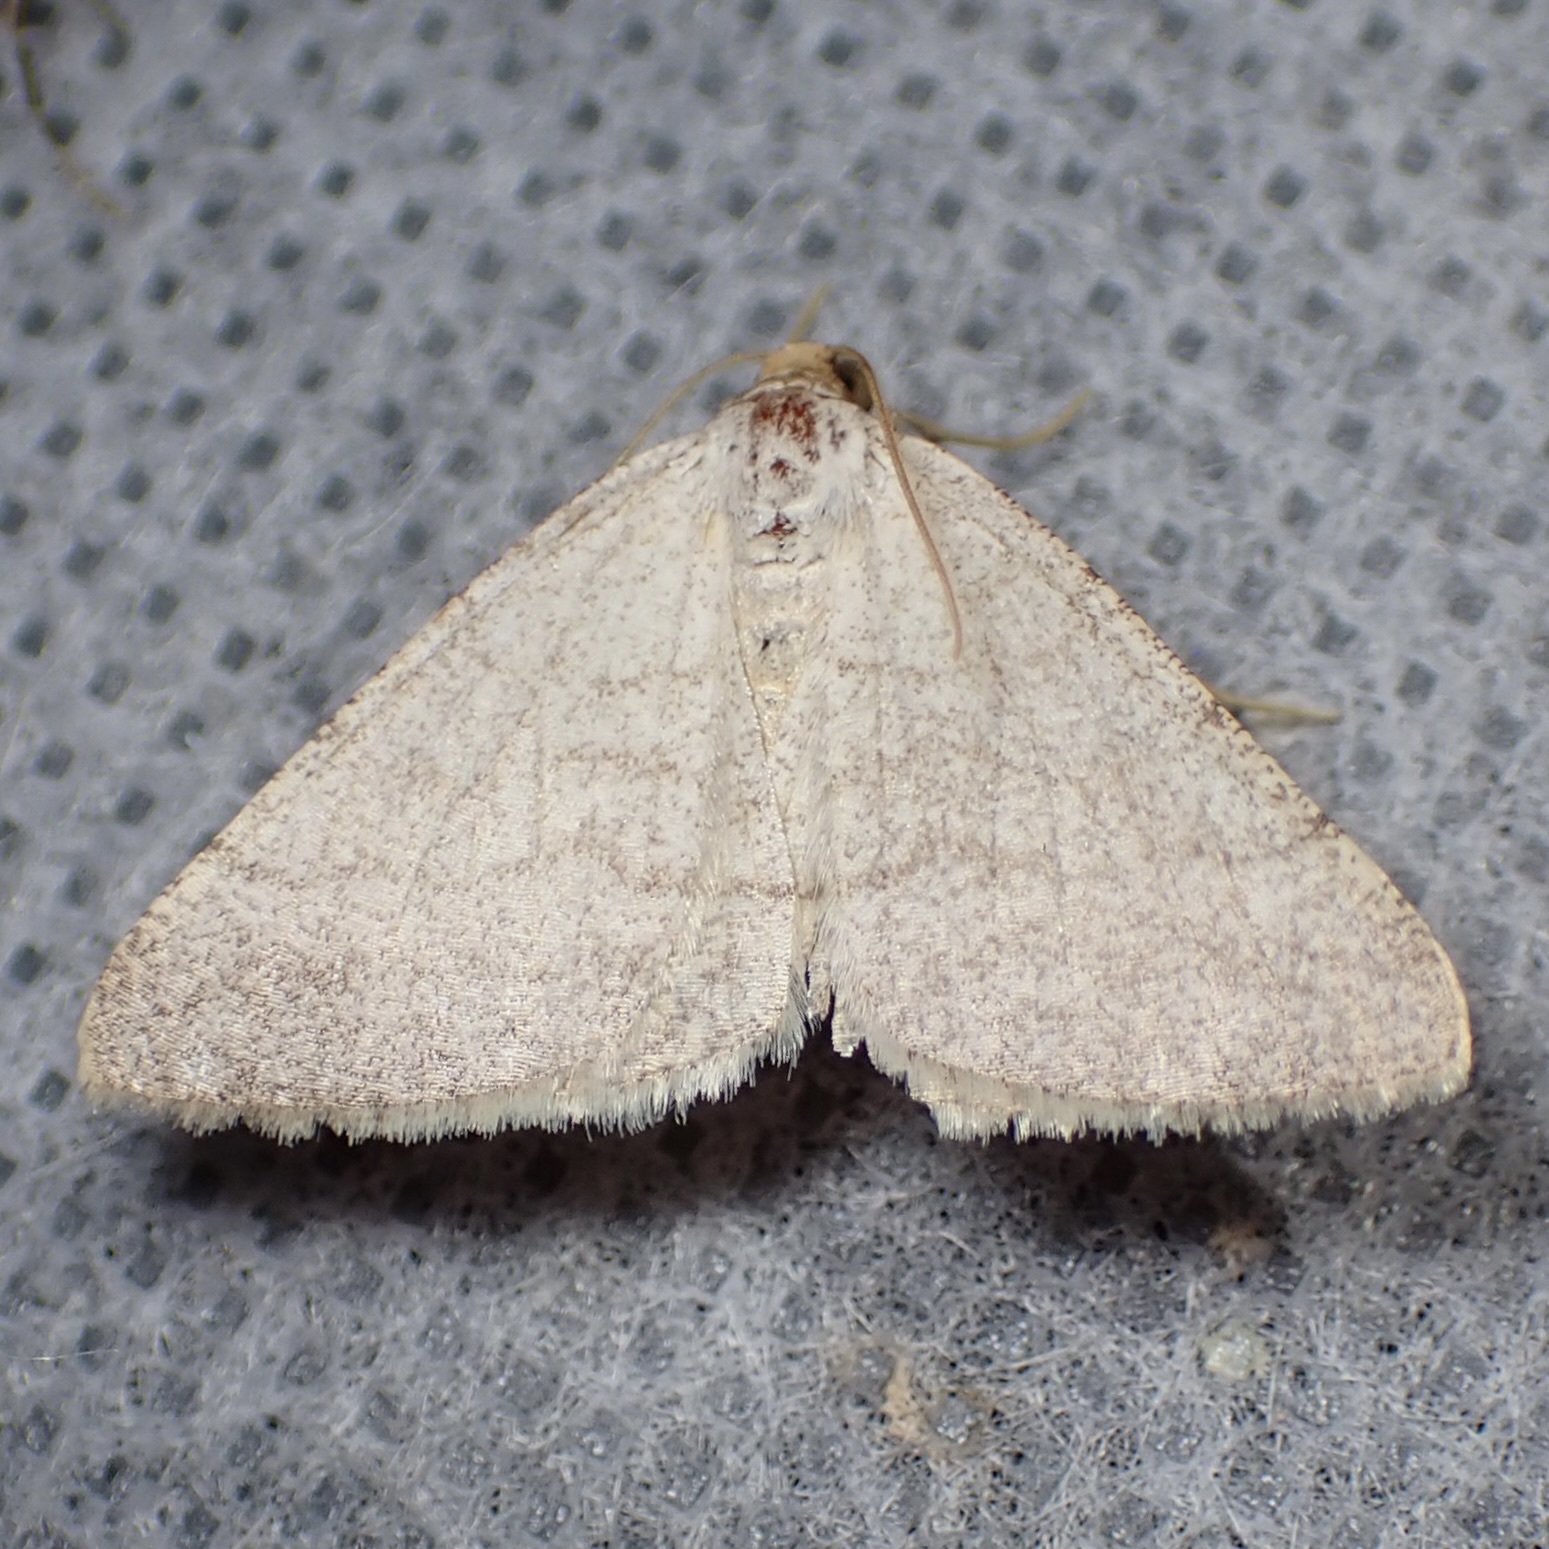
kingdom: Animalia
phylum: Arthropoda
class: Insecta
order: Lepidoptera
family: Geometridae
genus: Macaria
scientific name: Macaria tenebrosata
